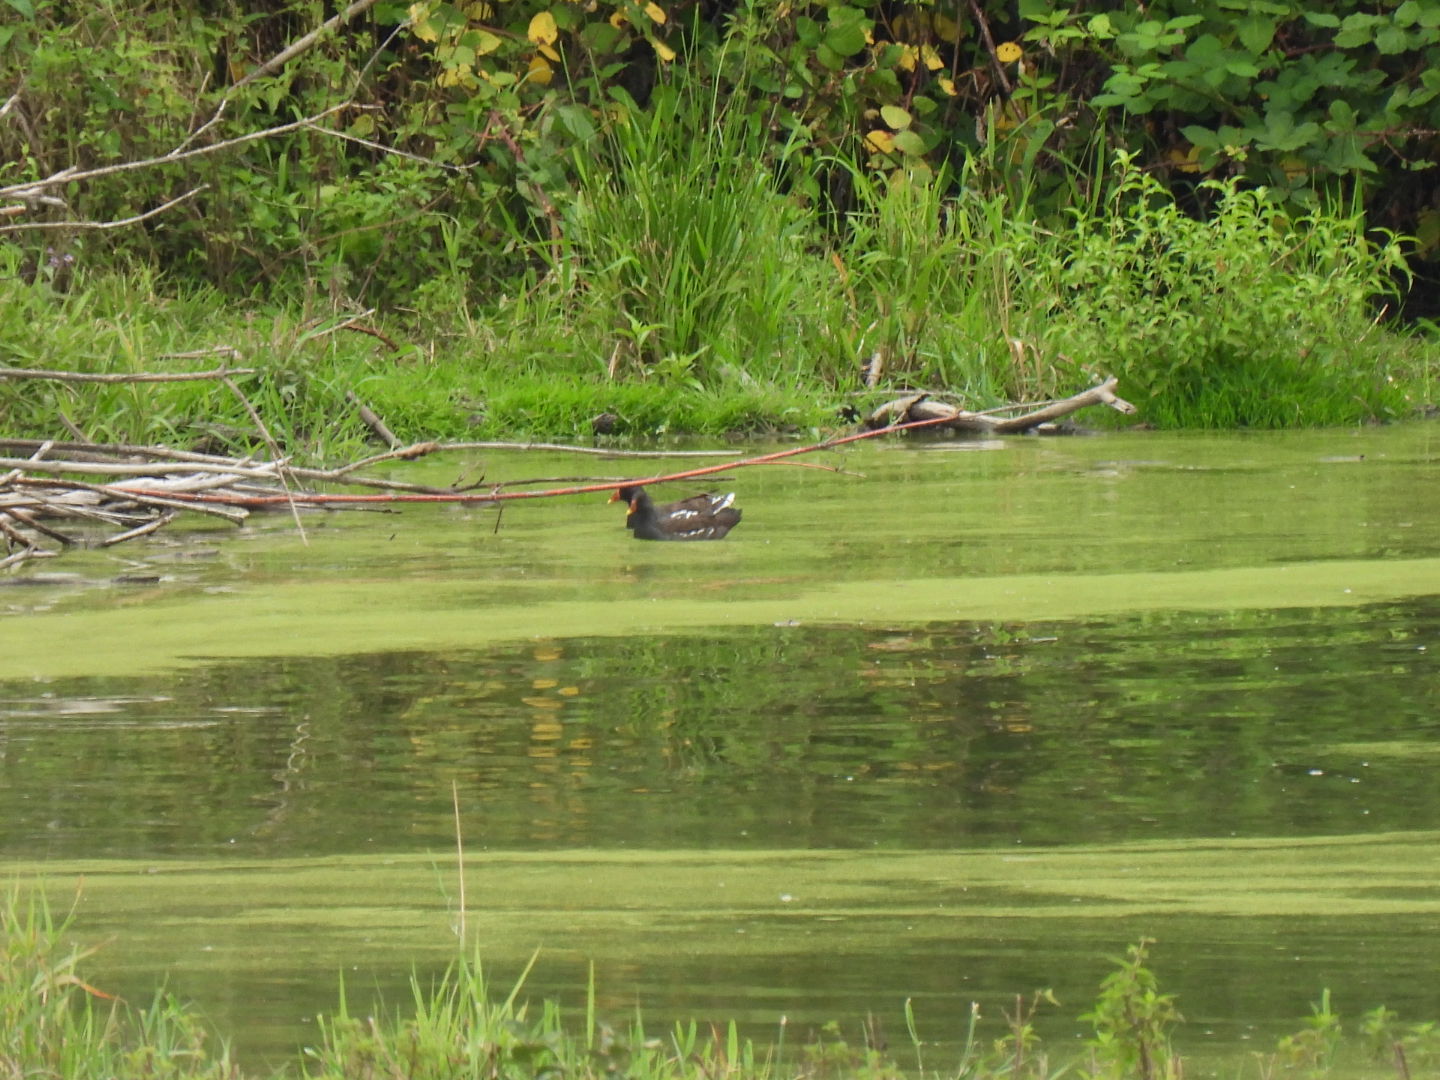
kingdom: Animalia
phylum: Chordata
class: Aves
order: Gruiformes
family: Rallidae
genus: Gallinula
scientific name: Gallinula chloropus
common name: Common moorhen
